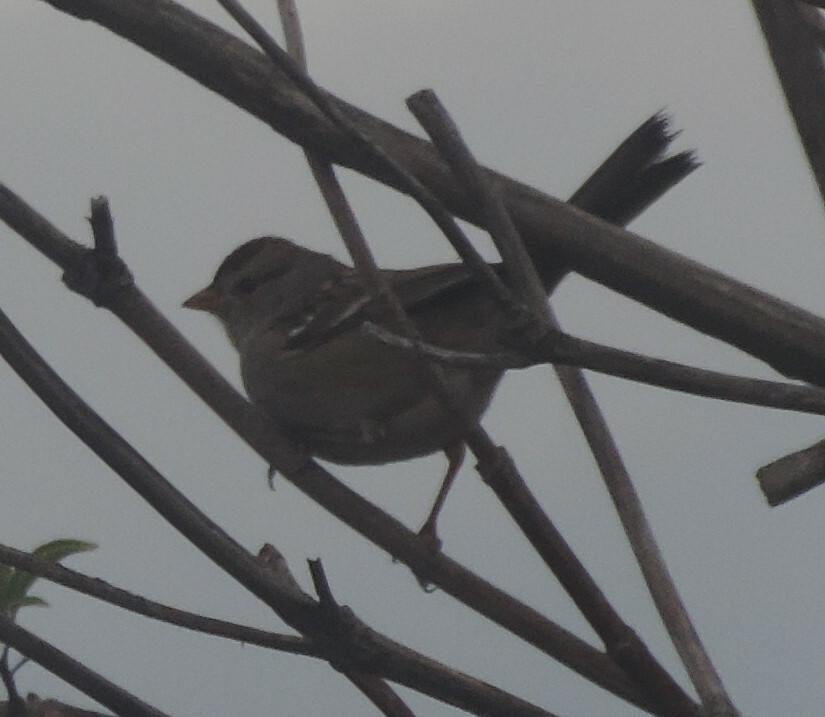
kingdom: Animalia
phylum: Chordata
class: Aves
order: Passeriformes
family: Passerellidae
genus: Zonotrichia
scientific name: Zonotrichia leucophrys
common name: White-crowned sparrow
